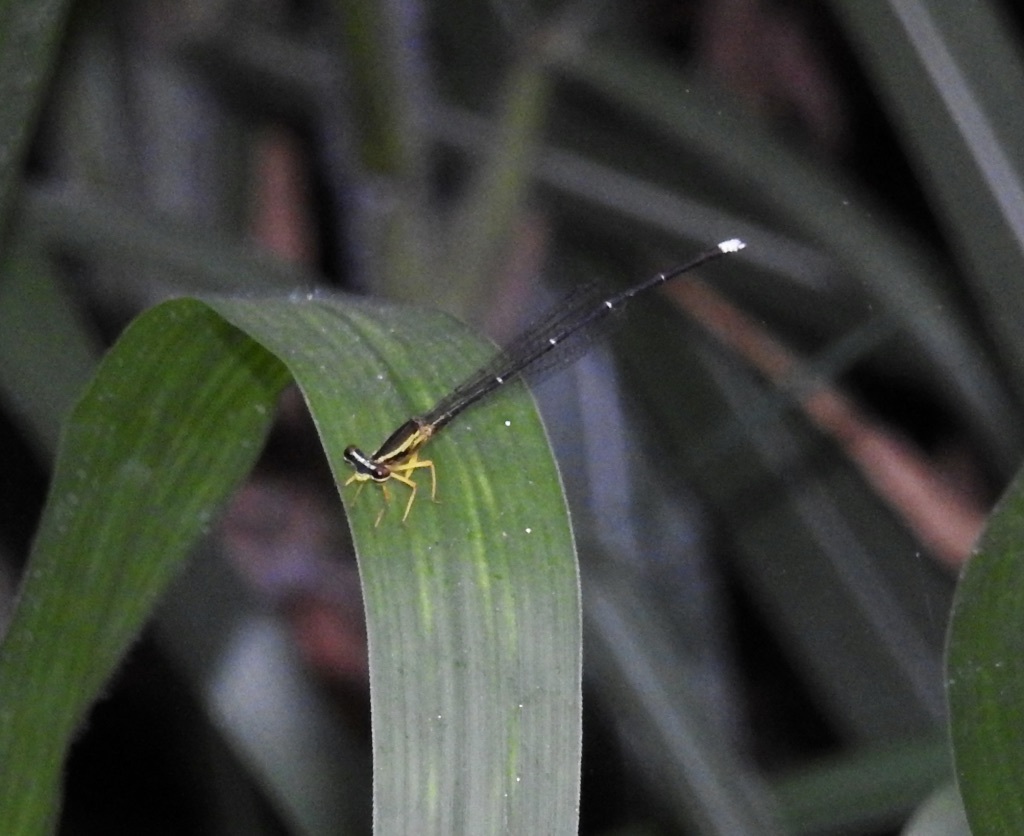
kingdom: Animalia
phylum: Arthropoda
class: Insecta
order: Odonata
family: Platycnemididae
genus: Copera
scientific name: Copera marginipes
